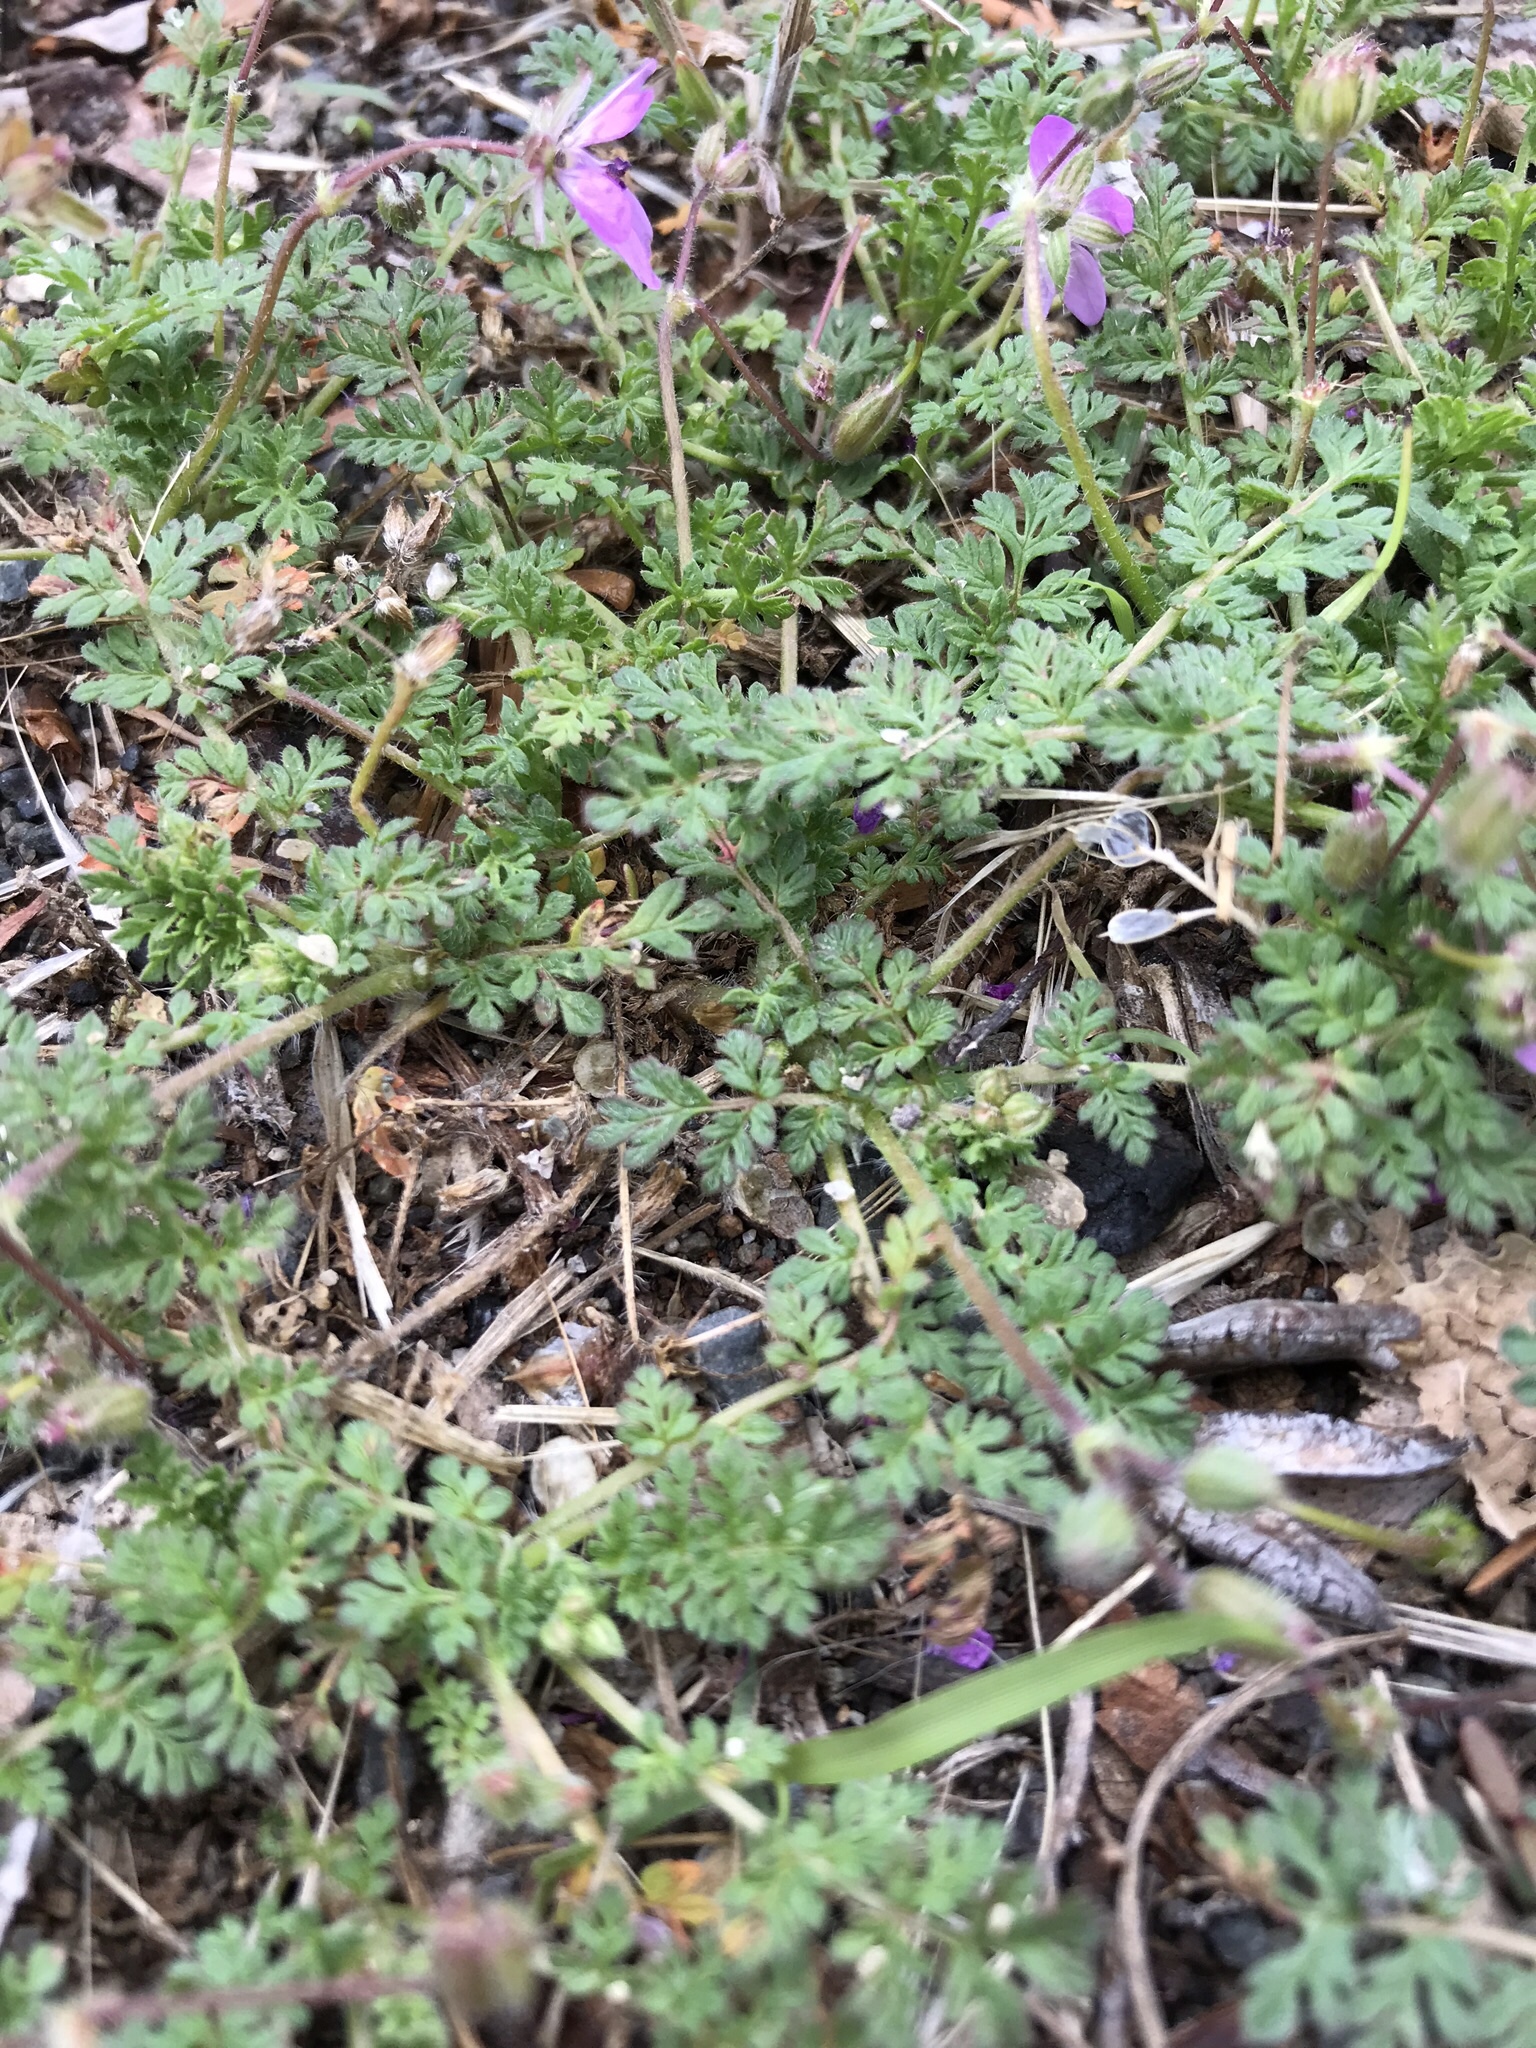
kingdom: Plantae
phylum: Tracheophyta
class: Magnoliopsida
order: Geraniales
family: Geraniaceae
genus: Erodium
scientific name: Erodium cicutarium
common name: Common stork's-bill
